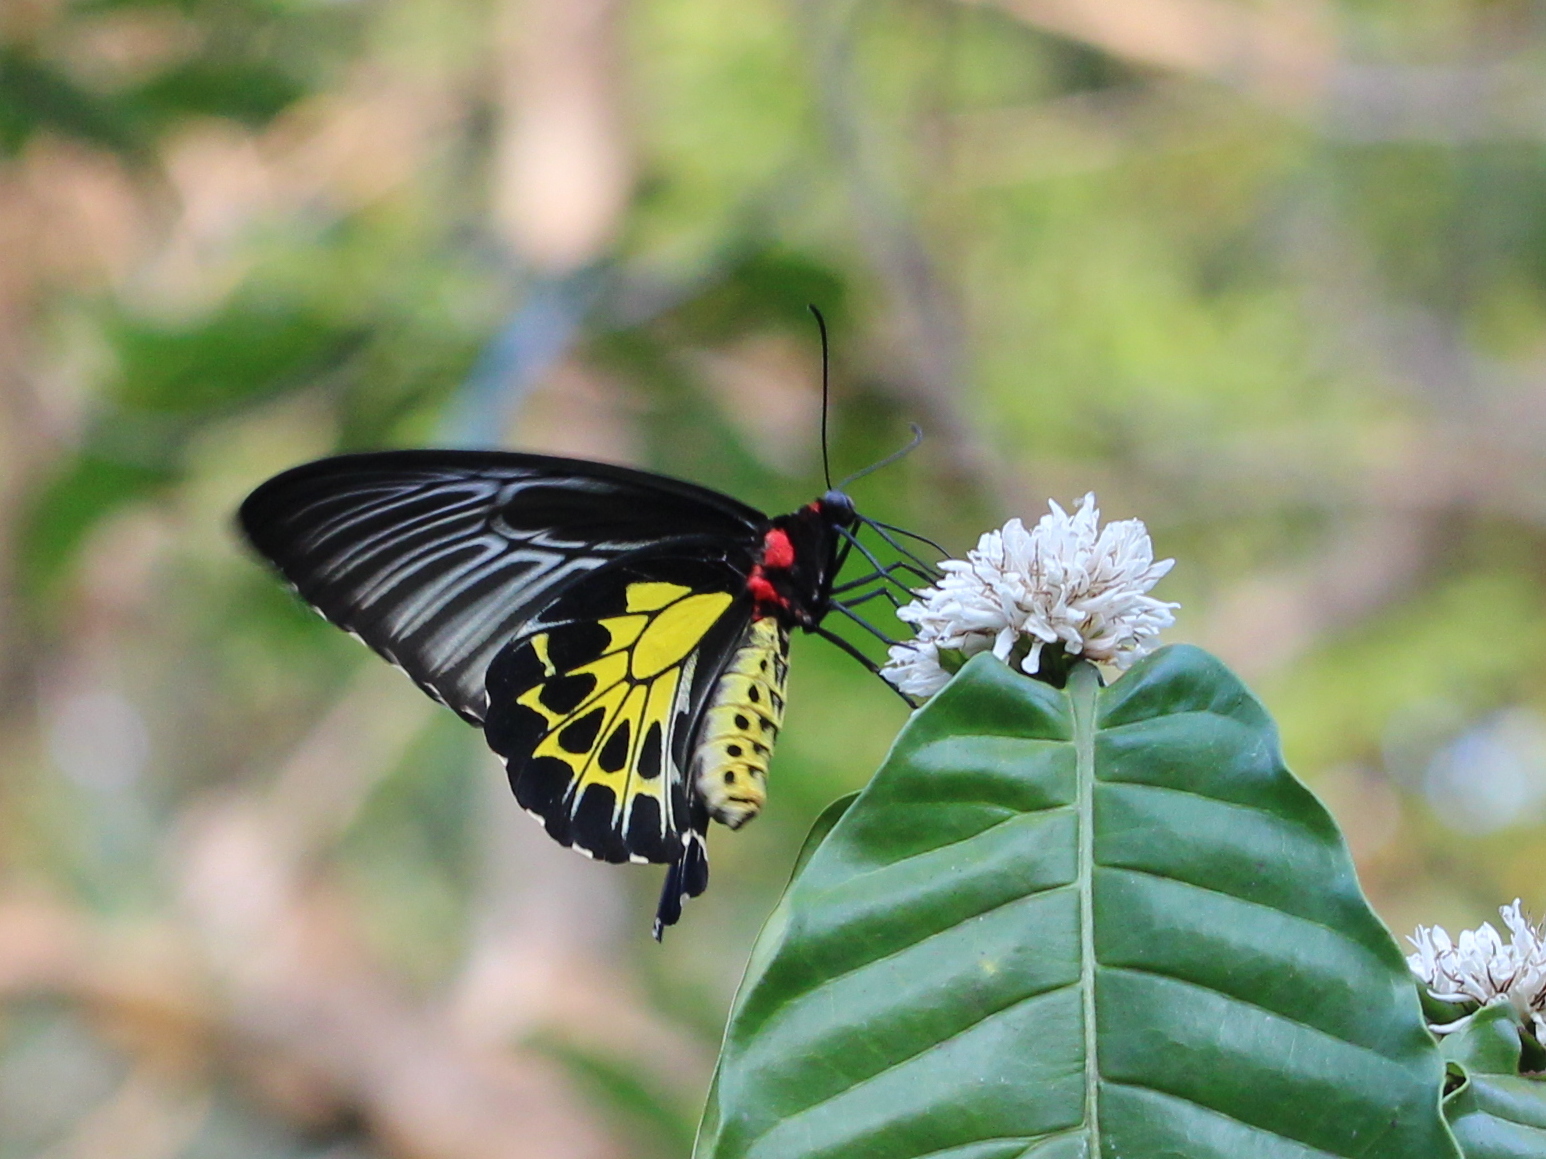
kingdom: Animalia
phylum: Arthropoda
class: Insecta
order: Lepidoptera
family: Papilionidae
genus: Troides
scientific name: Troides minos
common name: Malabar birdwing
